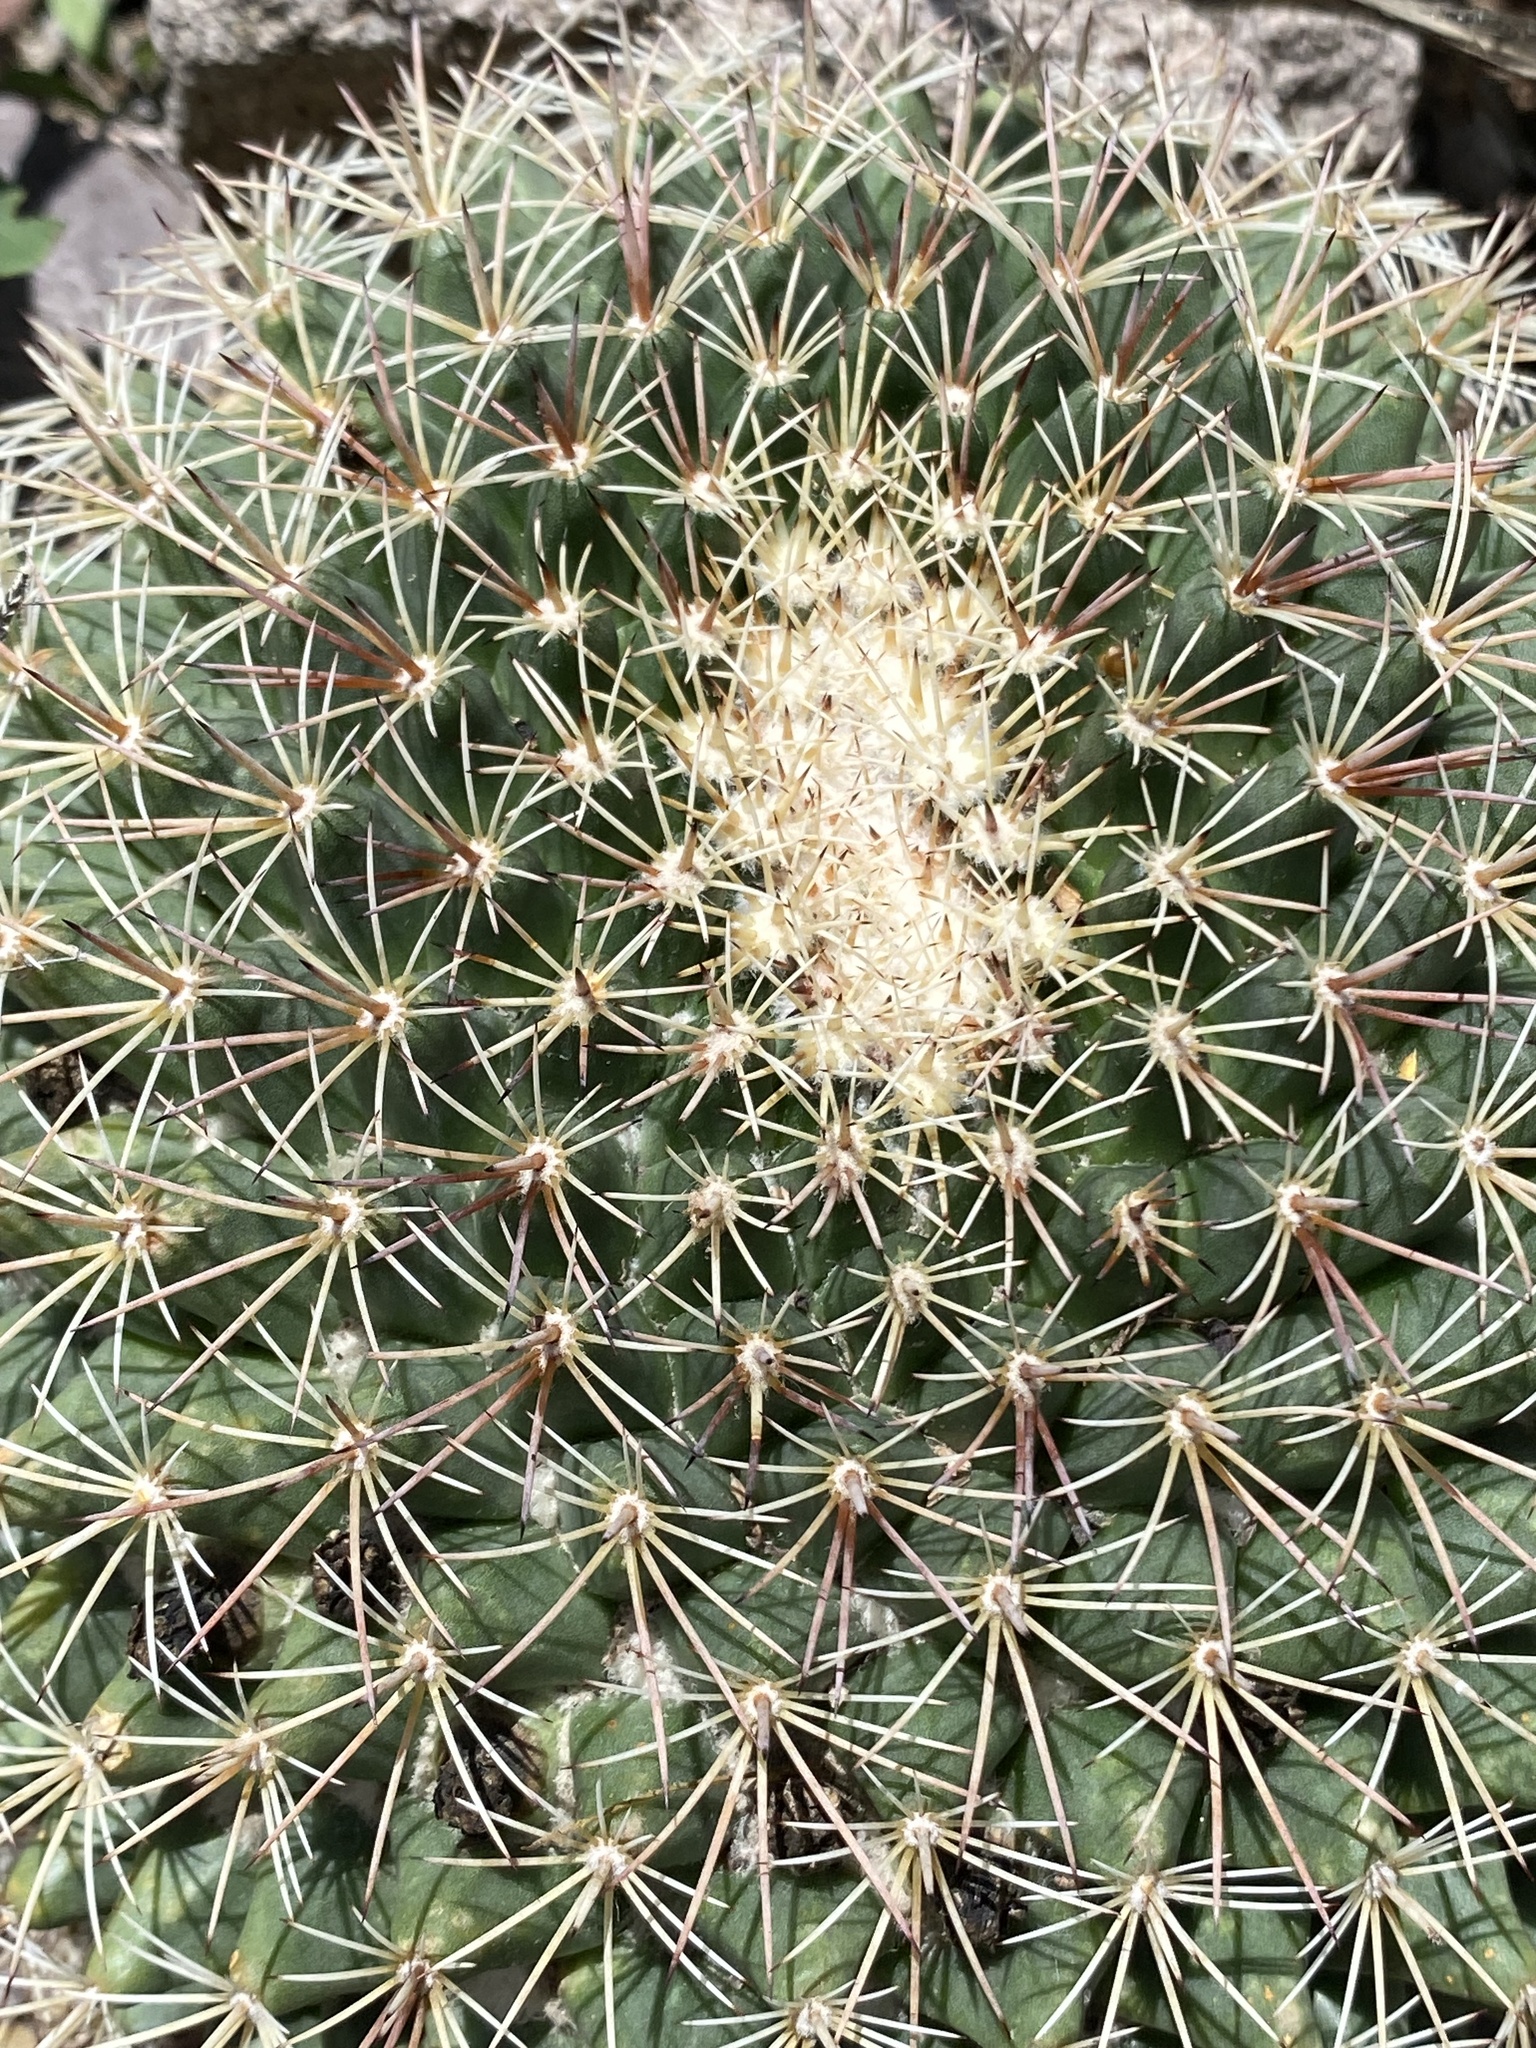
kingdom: Plantae
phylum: Tracheophyta
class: Magnoliopsida
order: Caryophyllales
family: Cactaceae
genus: Mammillaria
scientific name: Mammillaria heyderi
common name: Little nipple cactus
